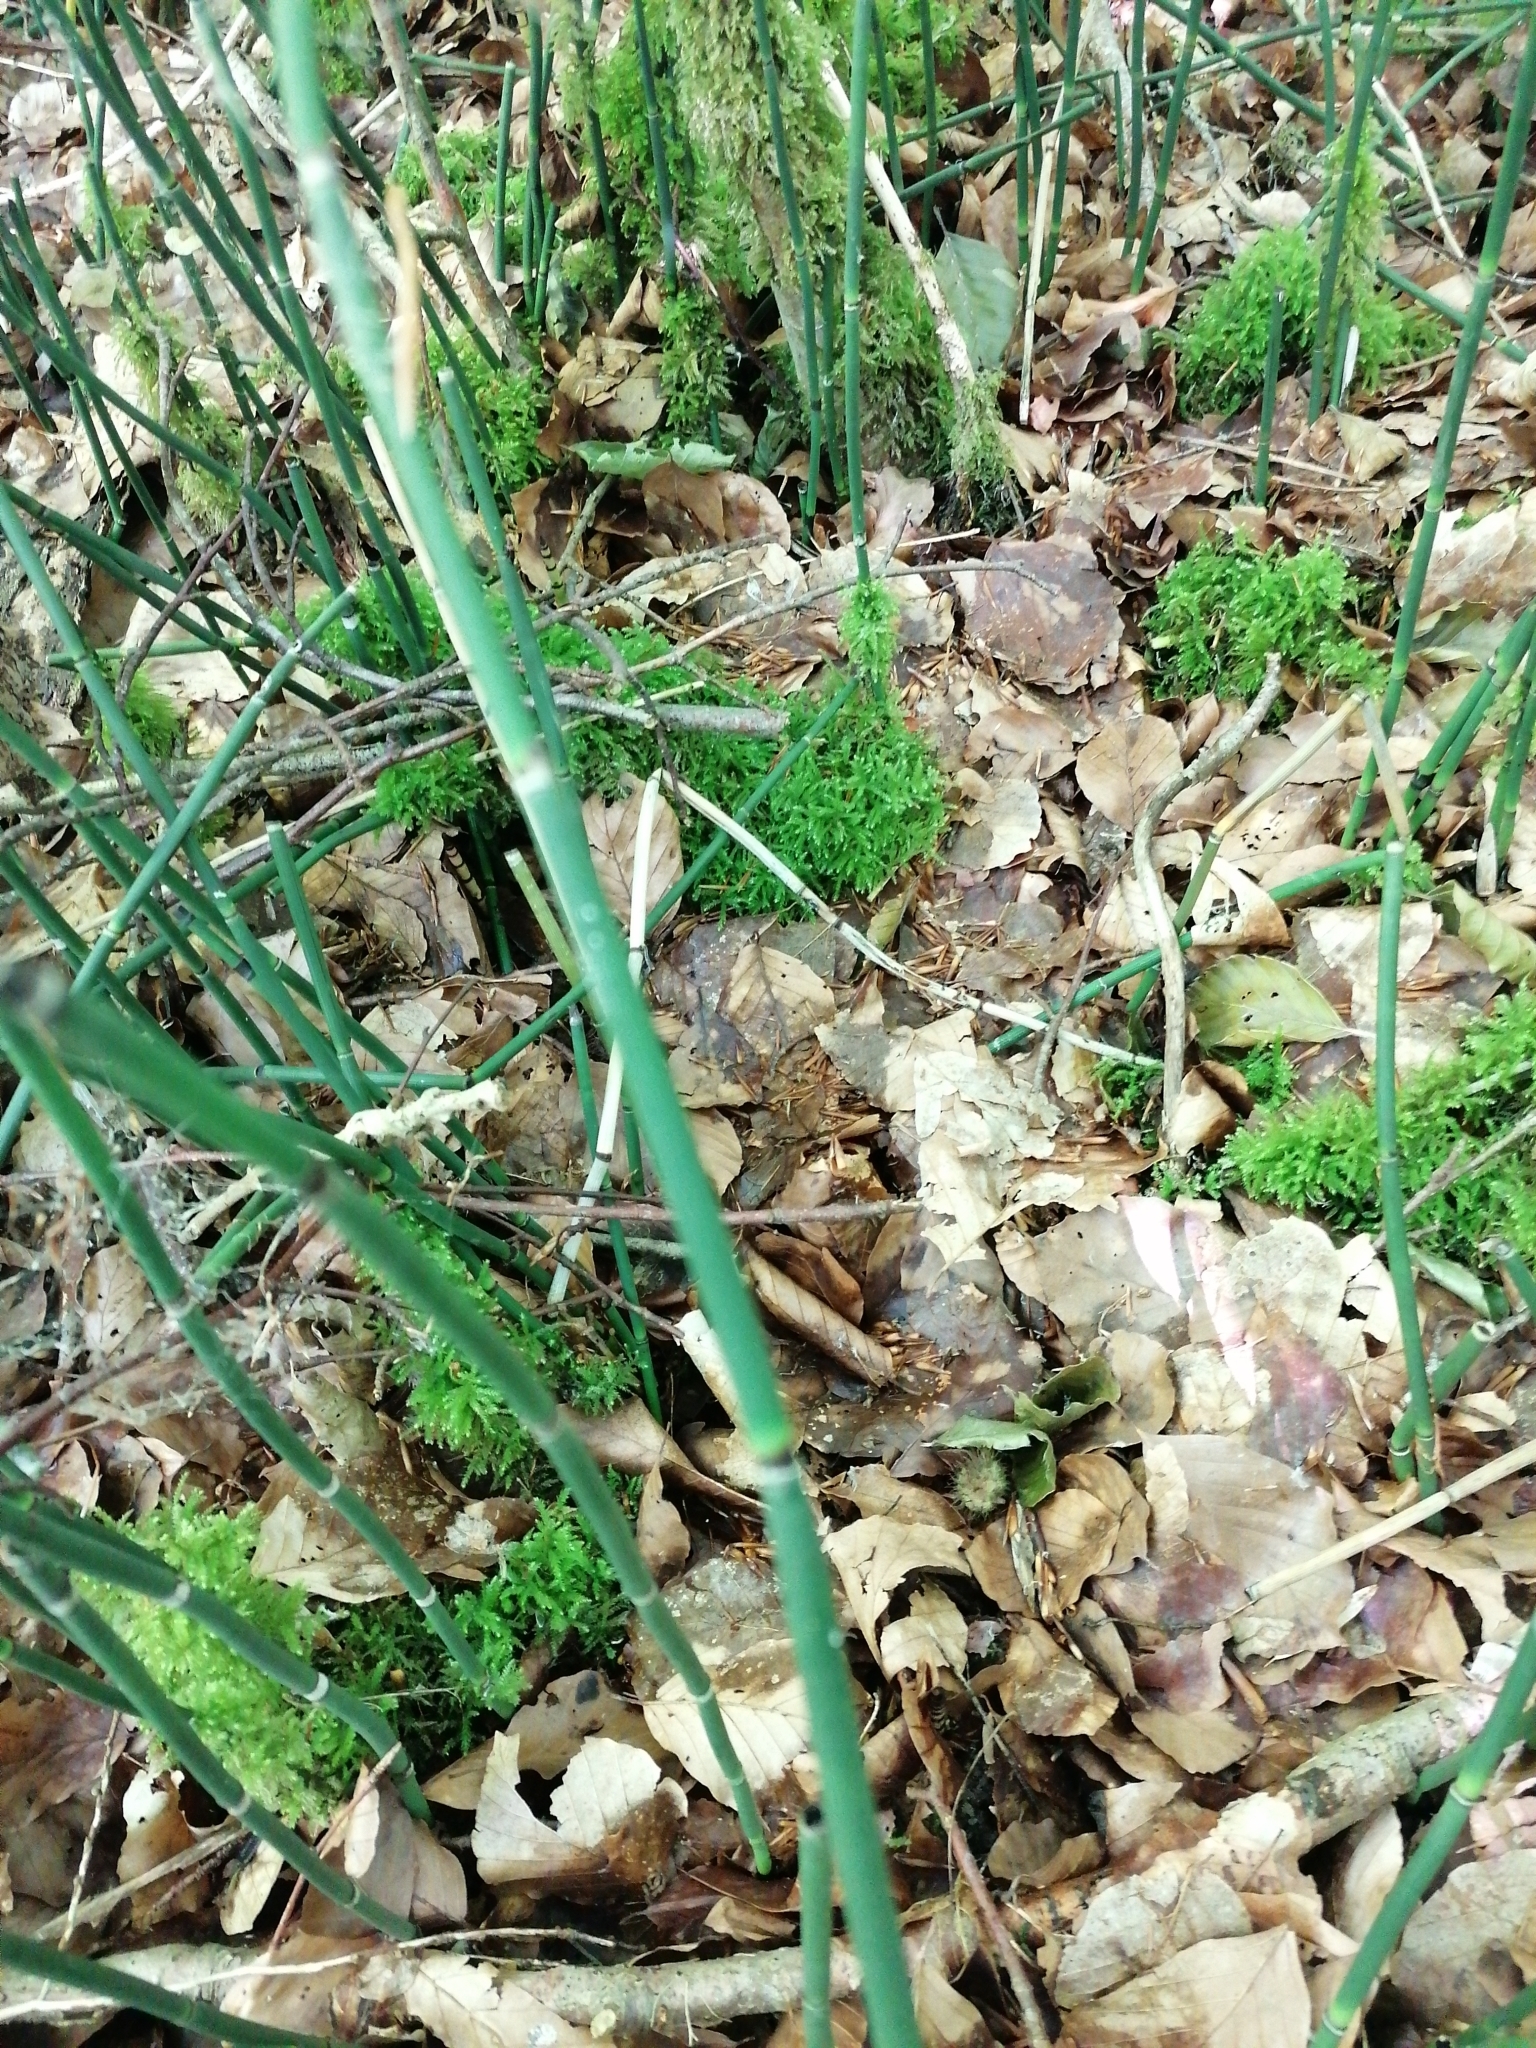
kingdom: Plantae
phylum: Tracheophyta
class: Polypodiopsida
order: Equisetales
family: Equisetaceae
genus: Equisetum
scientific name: Equisetum hyemale
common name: Rough horsetail
